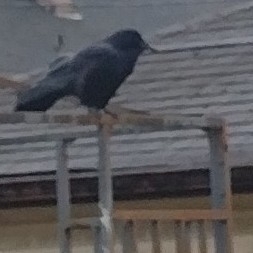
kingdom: Animalia
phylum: Chordata
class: Aves
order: Passeriformes
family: Corvidae
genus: Corvus
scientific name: Corvus brachyrhynchos
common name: American crow
